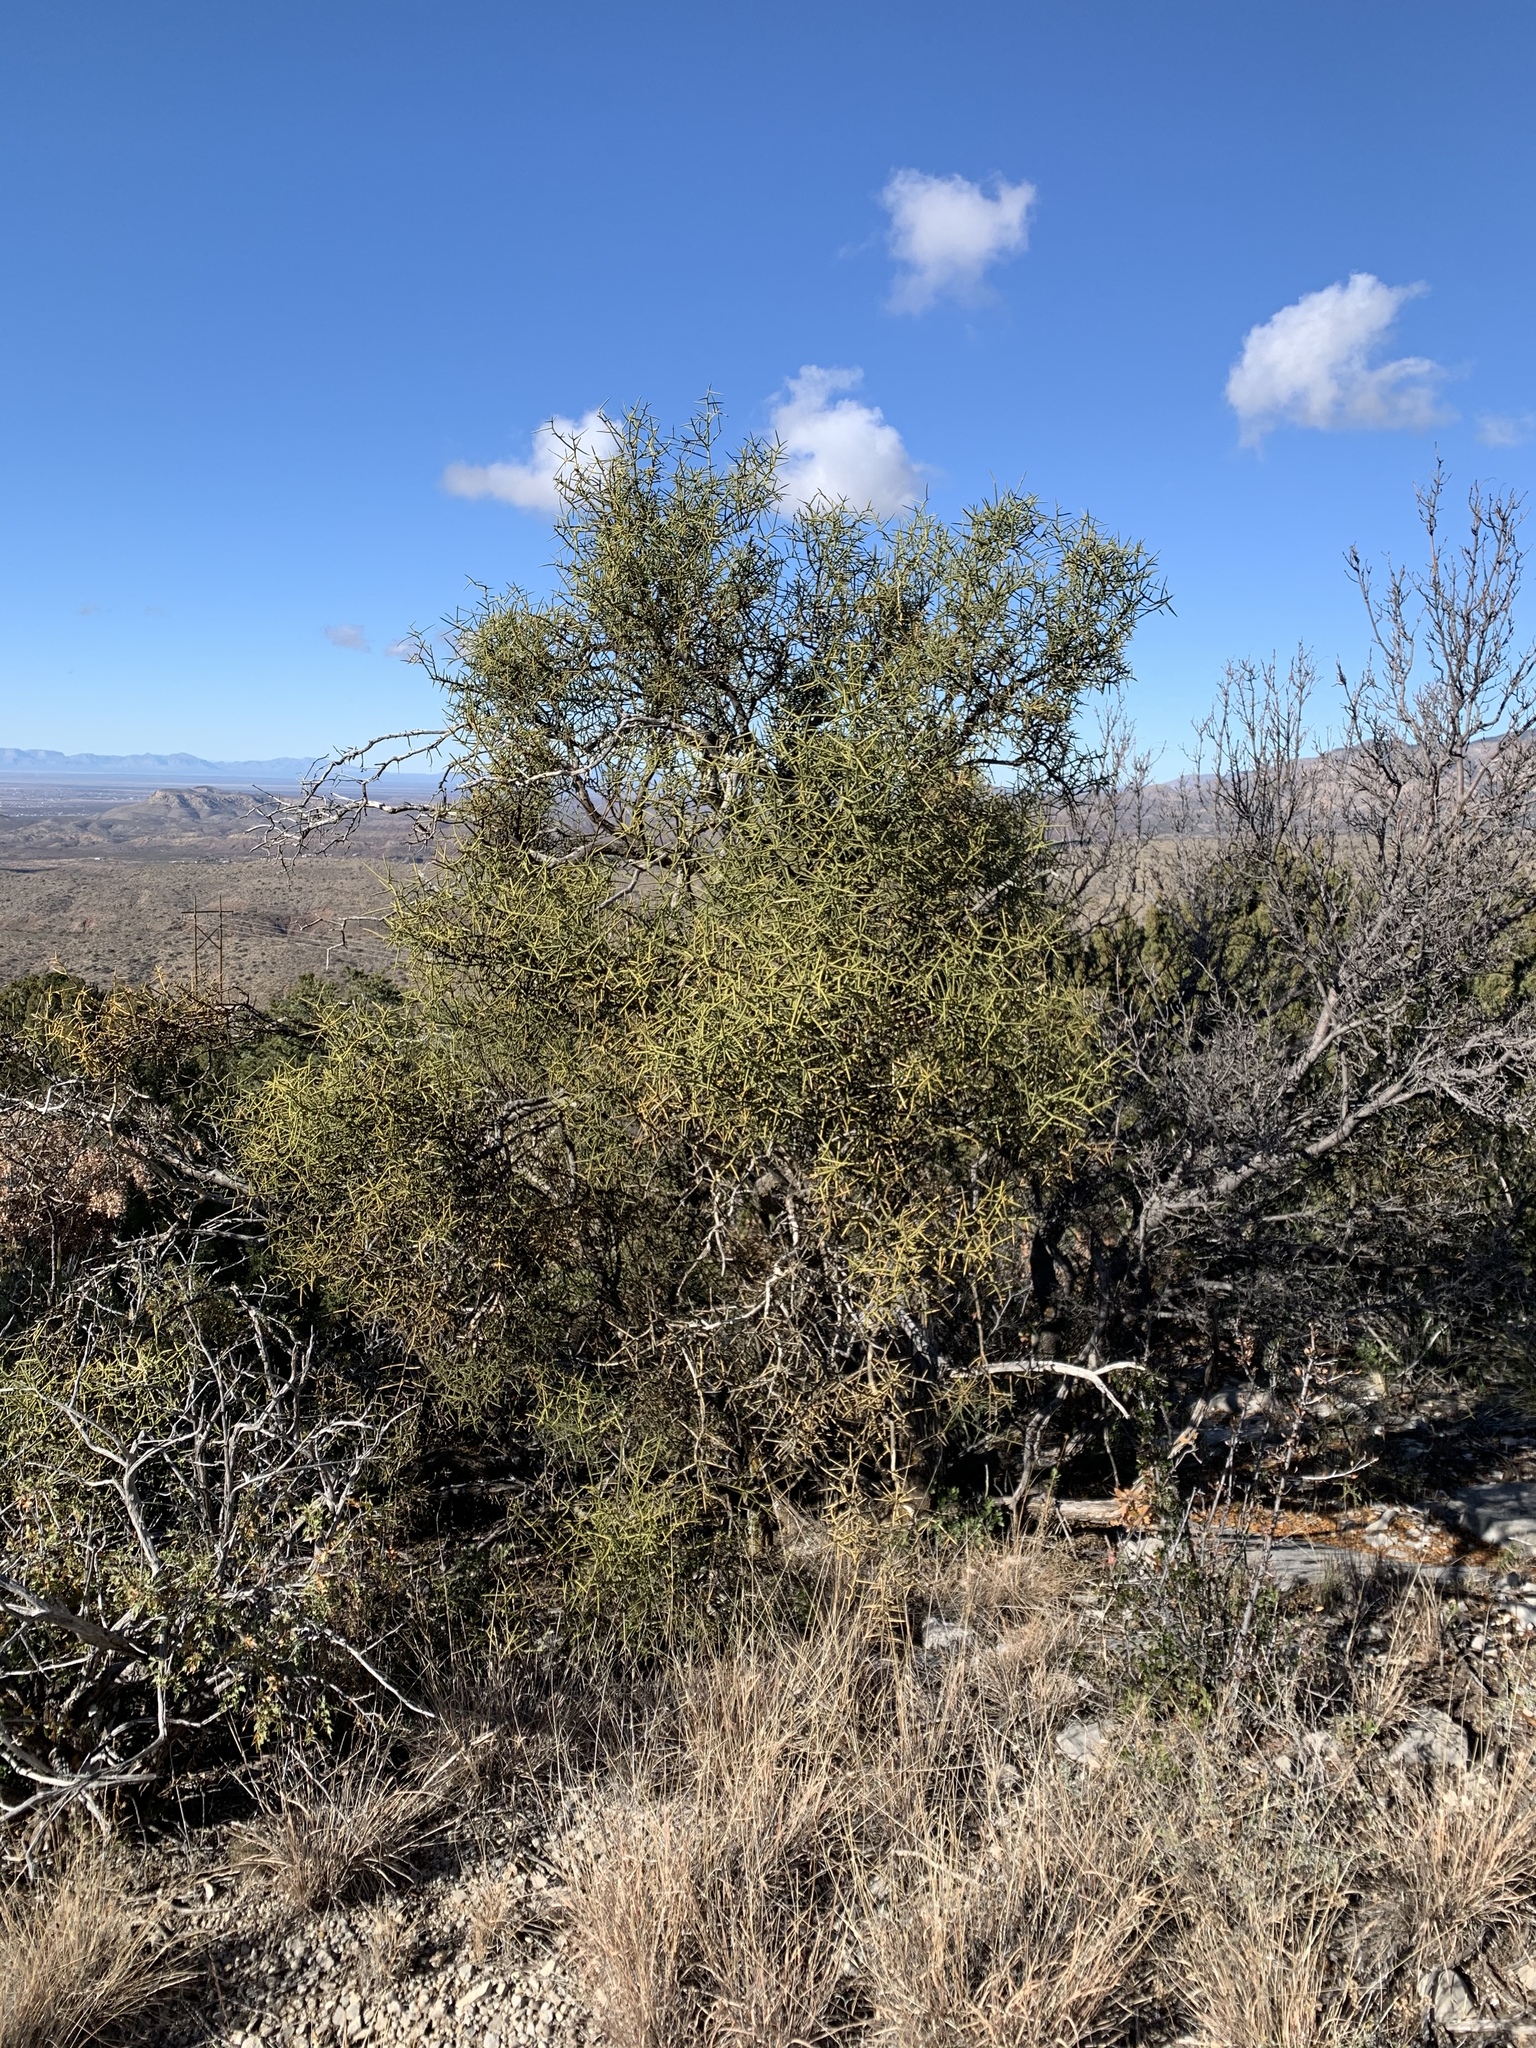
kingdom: Plantae
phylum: Tracheophyta
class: Magnoliopsida
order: Brassicales
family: Koeberliniaceae
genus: Koeberlinia
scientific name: Koeberlinia spinosa
